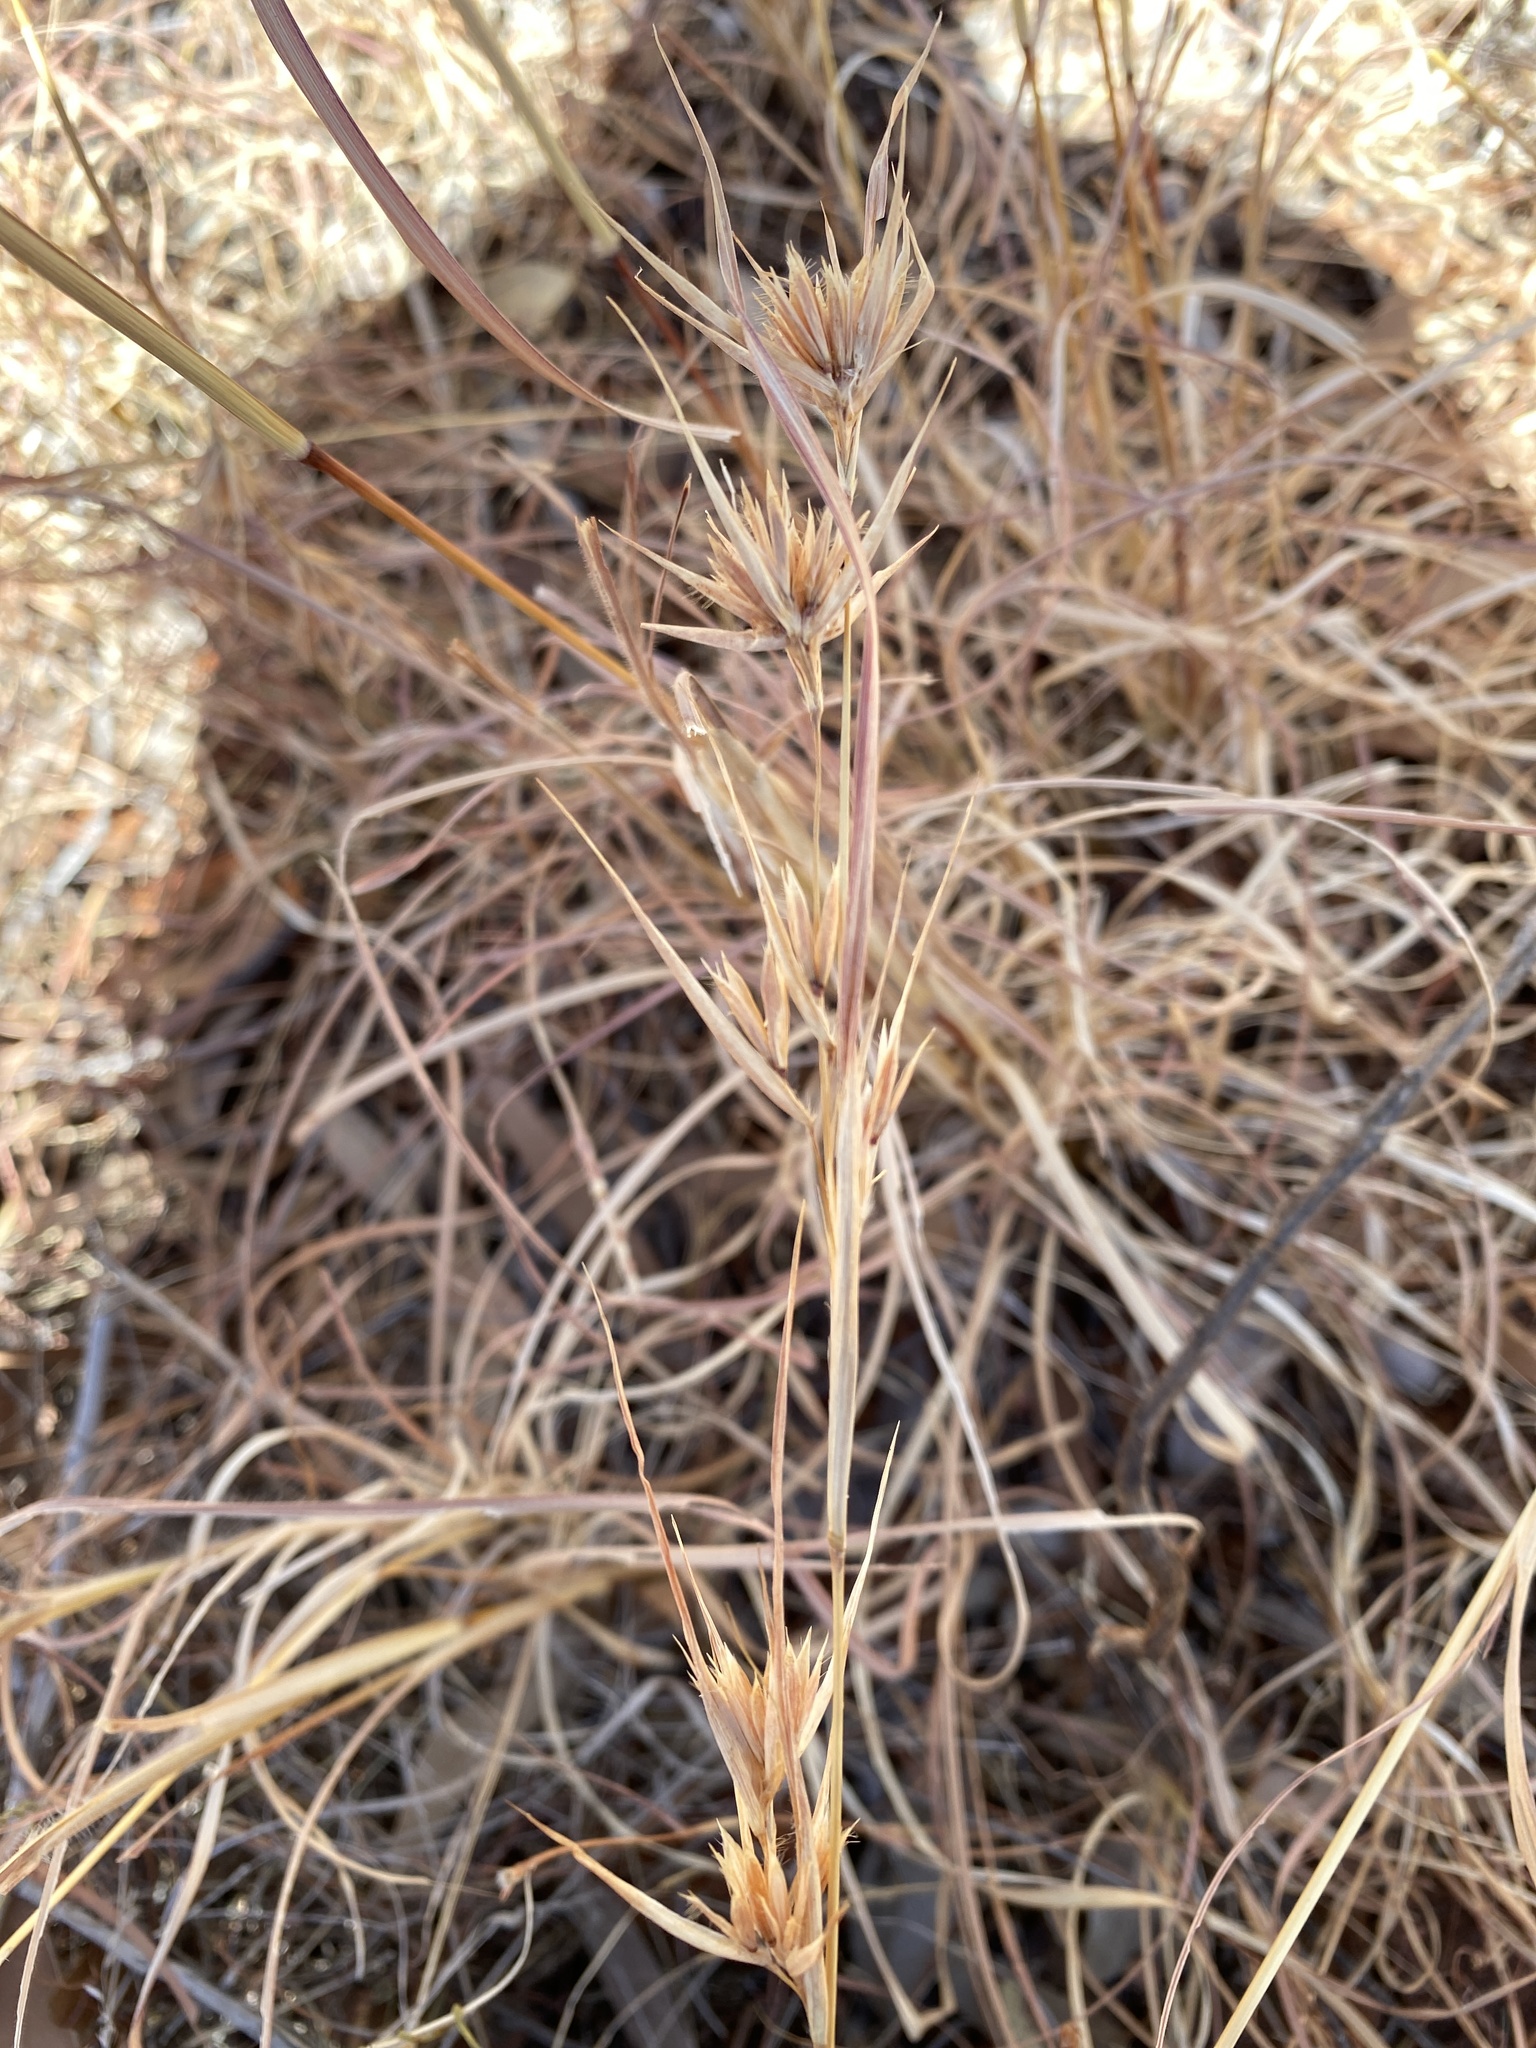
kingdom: Plantae
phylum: Tracheophyta
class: Liliopsida
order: Poales
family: Poaceae
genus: Themeda
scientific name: Themeda triandra
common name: Kangaroo grass
